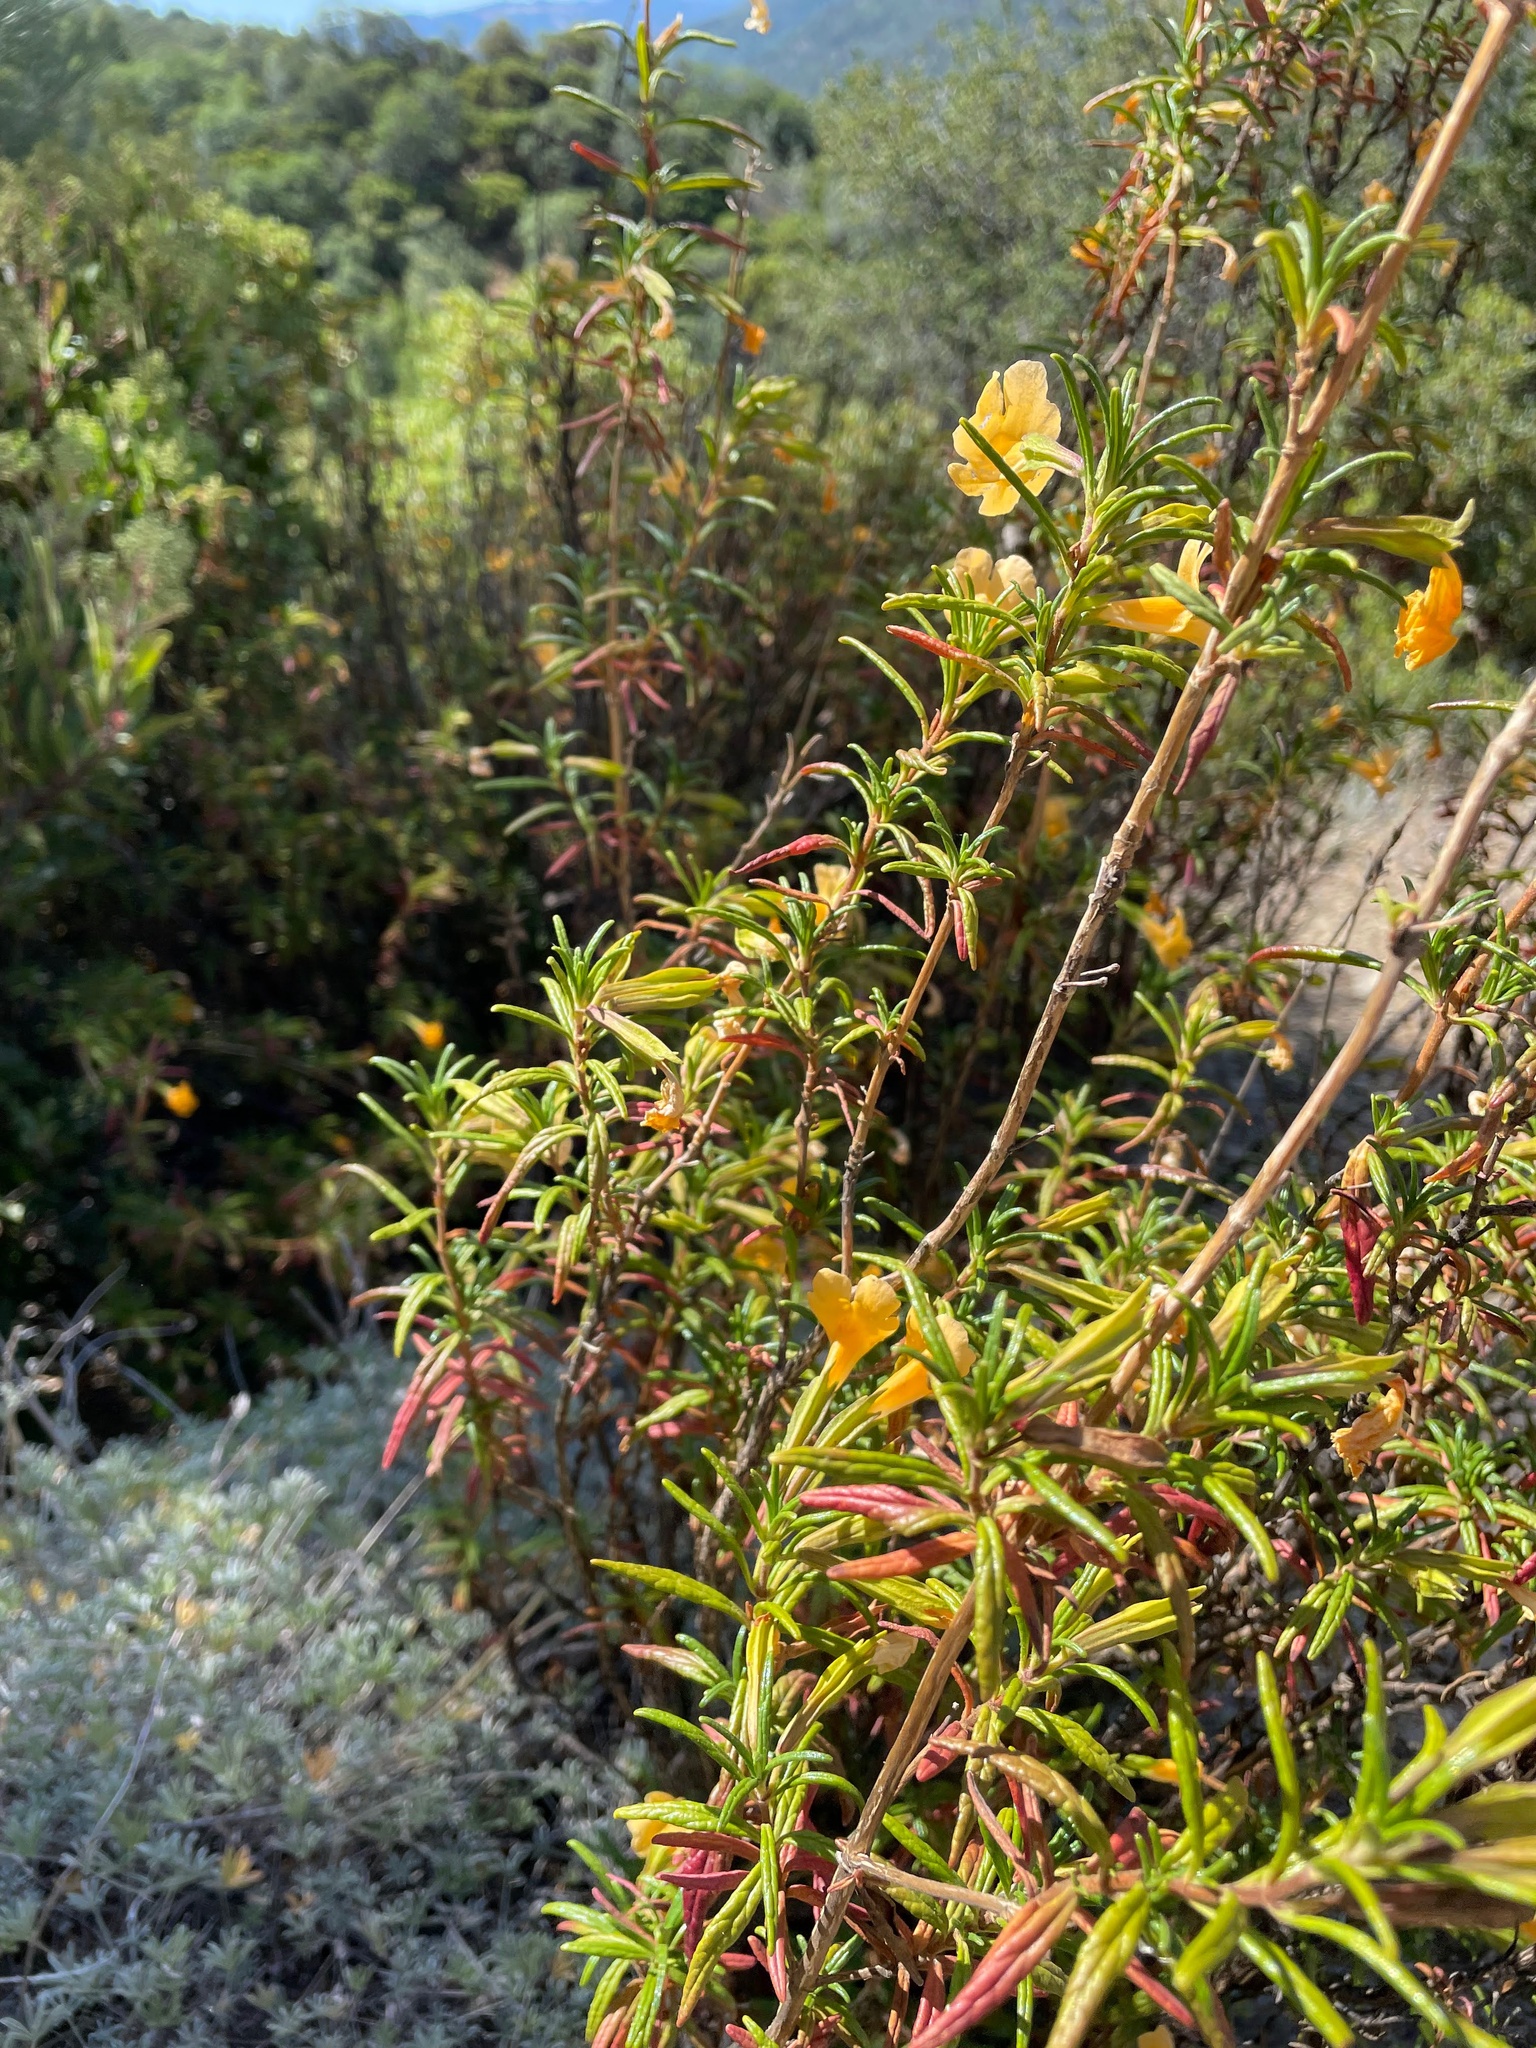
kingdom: Plantae
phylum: Tracheophyta
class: Magnoliopsida
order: Lamiales
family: Phrymaceae
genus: Diplacus
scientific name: Diplacus aurantiacus
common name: Bush monkey-flower
